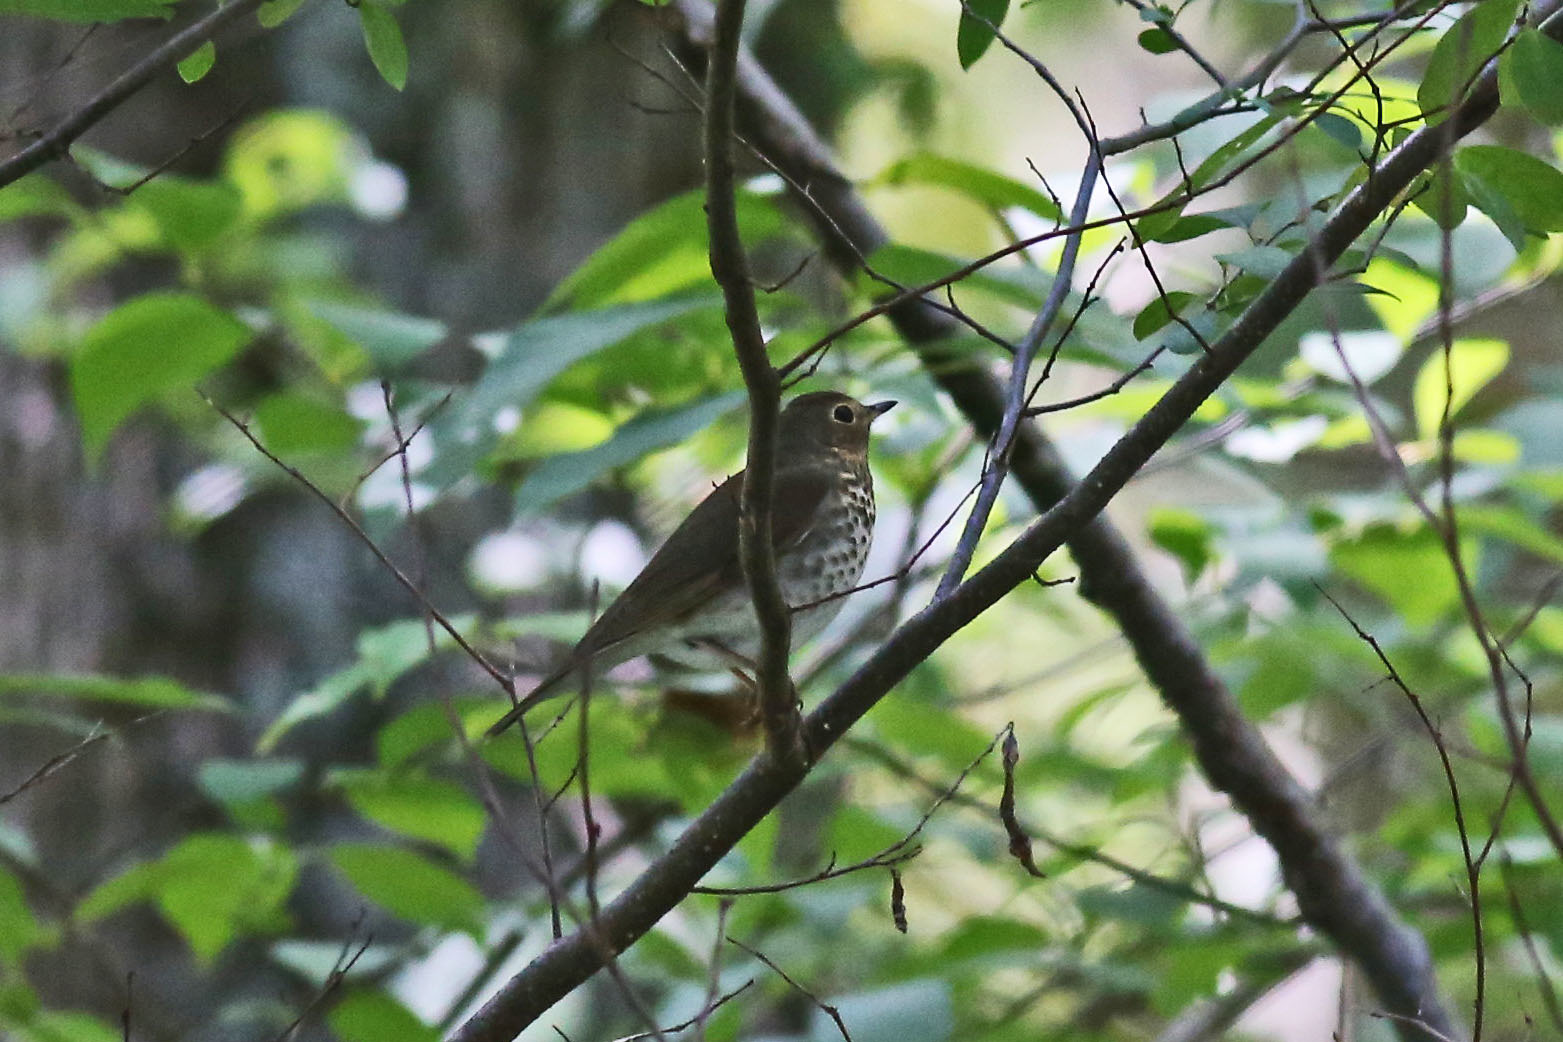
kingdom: Animalia
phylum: Chordata
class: Aves
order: Passeriformes
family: Turdidae
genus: Catharus
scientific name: Catharus ustulatus
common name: Swainson's thrush
